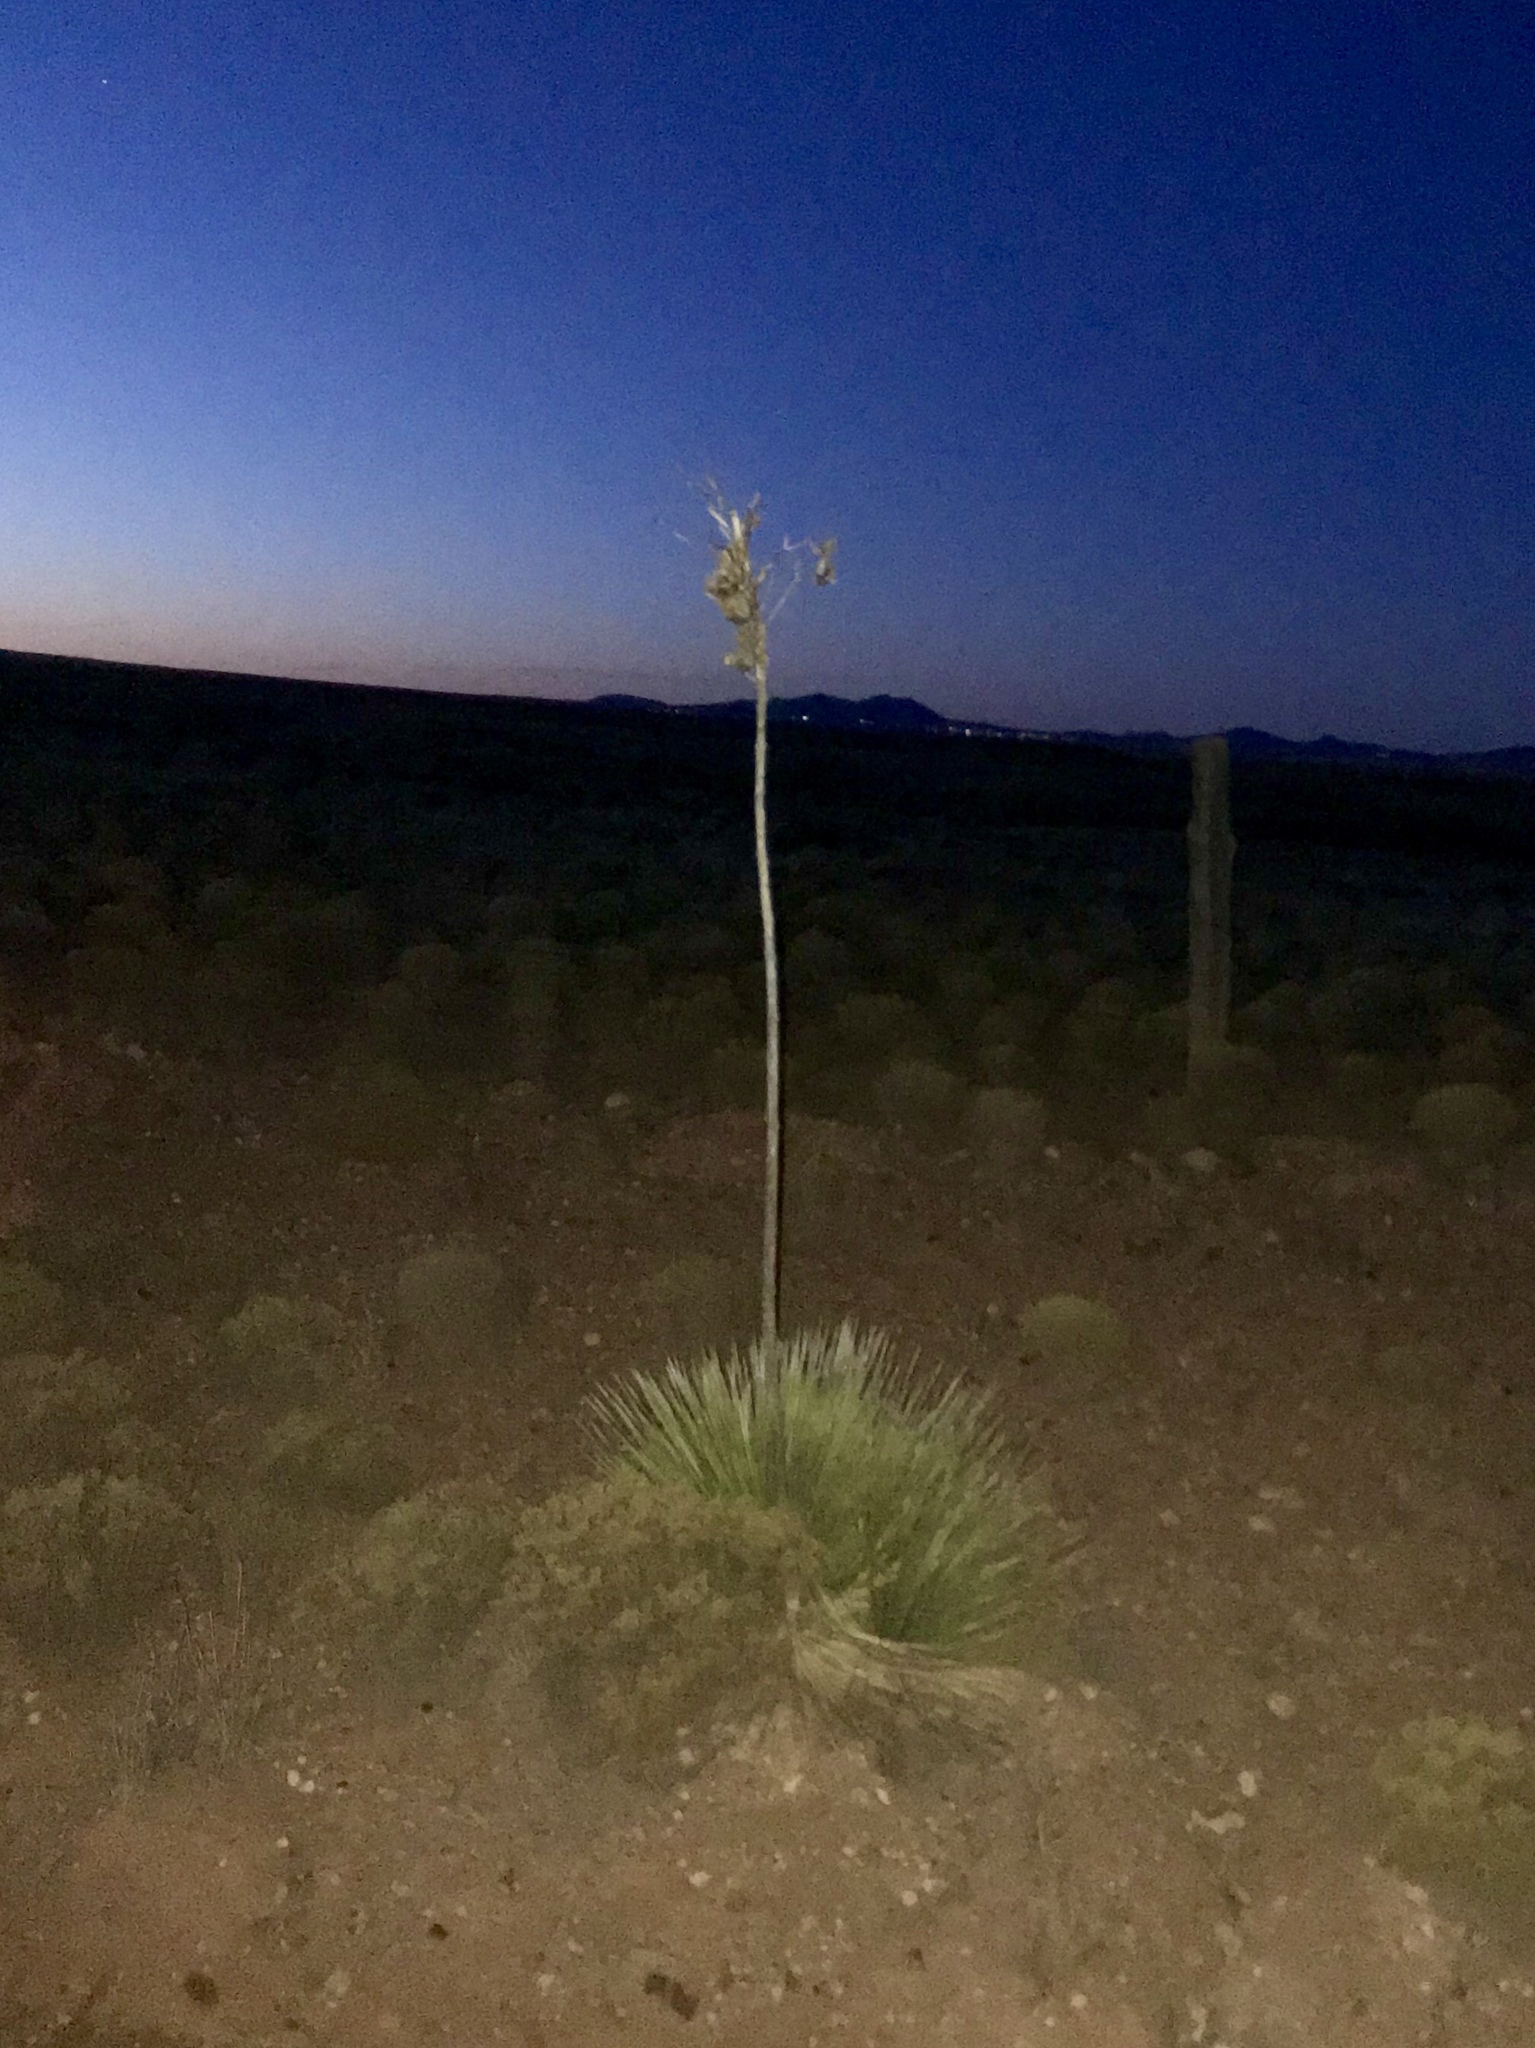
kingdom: Plantae
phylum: Tracheophyta
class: Liliopsida
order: Asparagales
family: Asparagaceae
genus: Yucca
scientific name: Yucca elata
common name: Palmella
